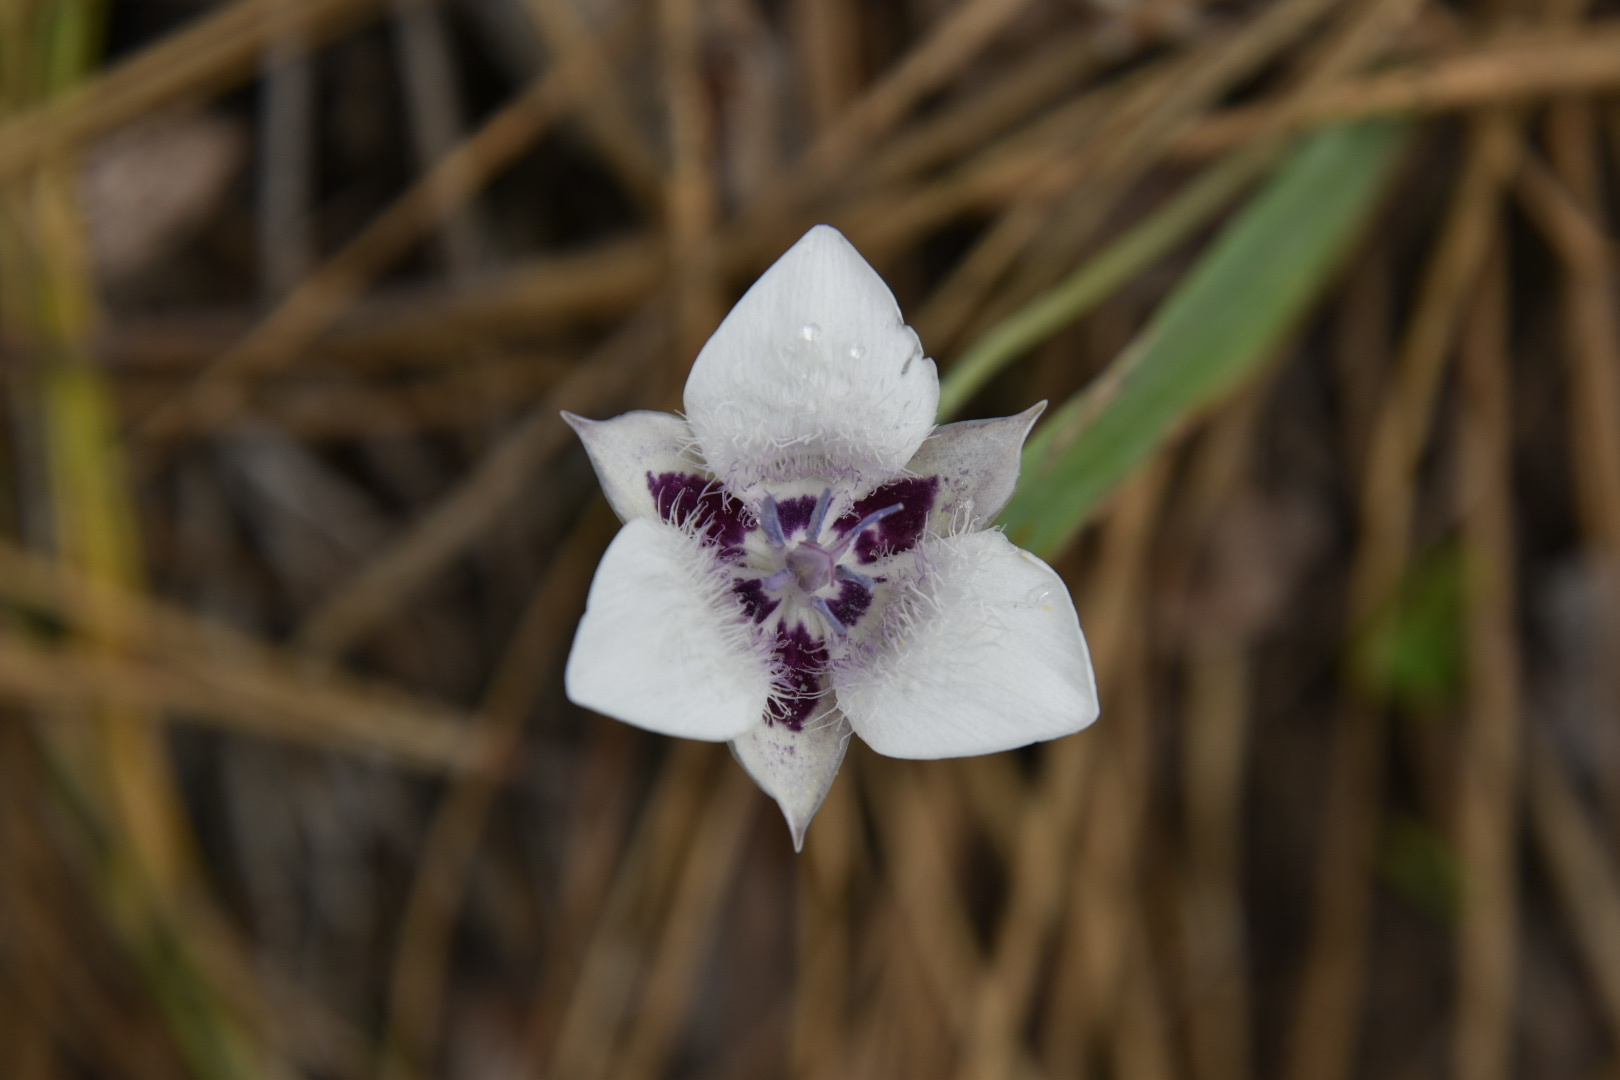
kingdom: Plantae
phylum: Tracheophyta
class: Liliopsida
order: Liliales
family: Liliaceae
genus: Calochortus
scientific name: Calochortus elegans
